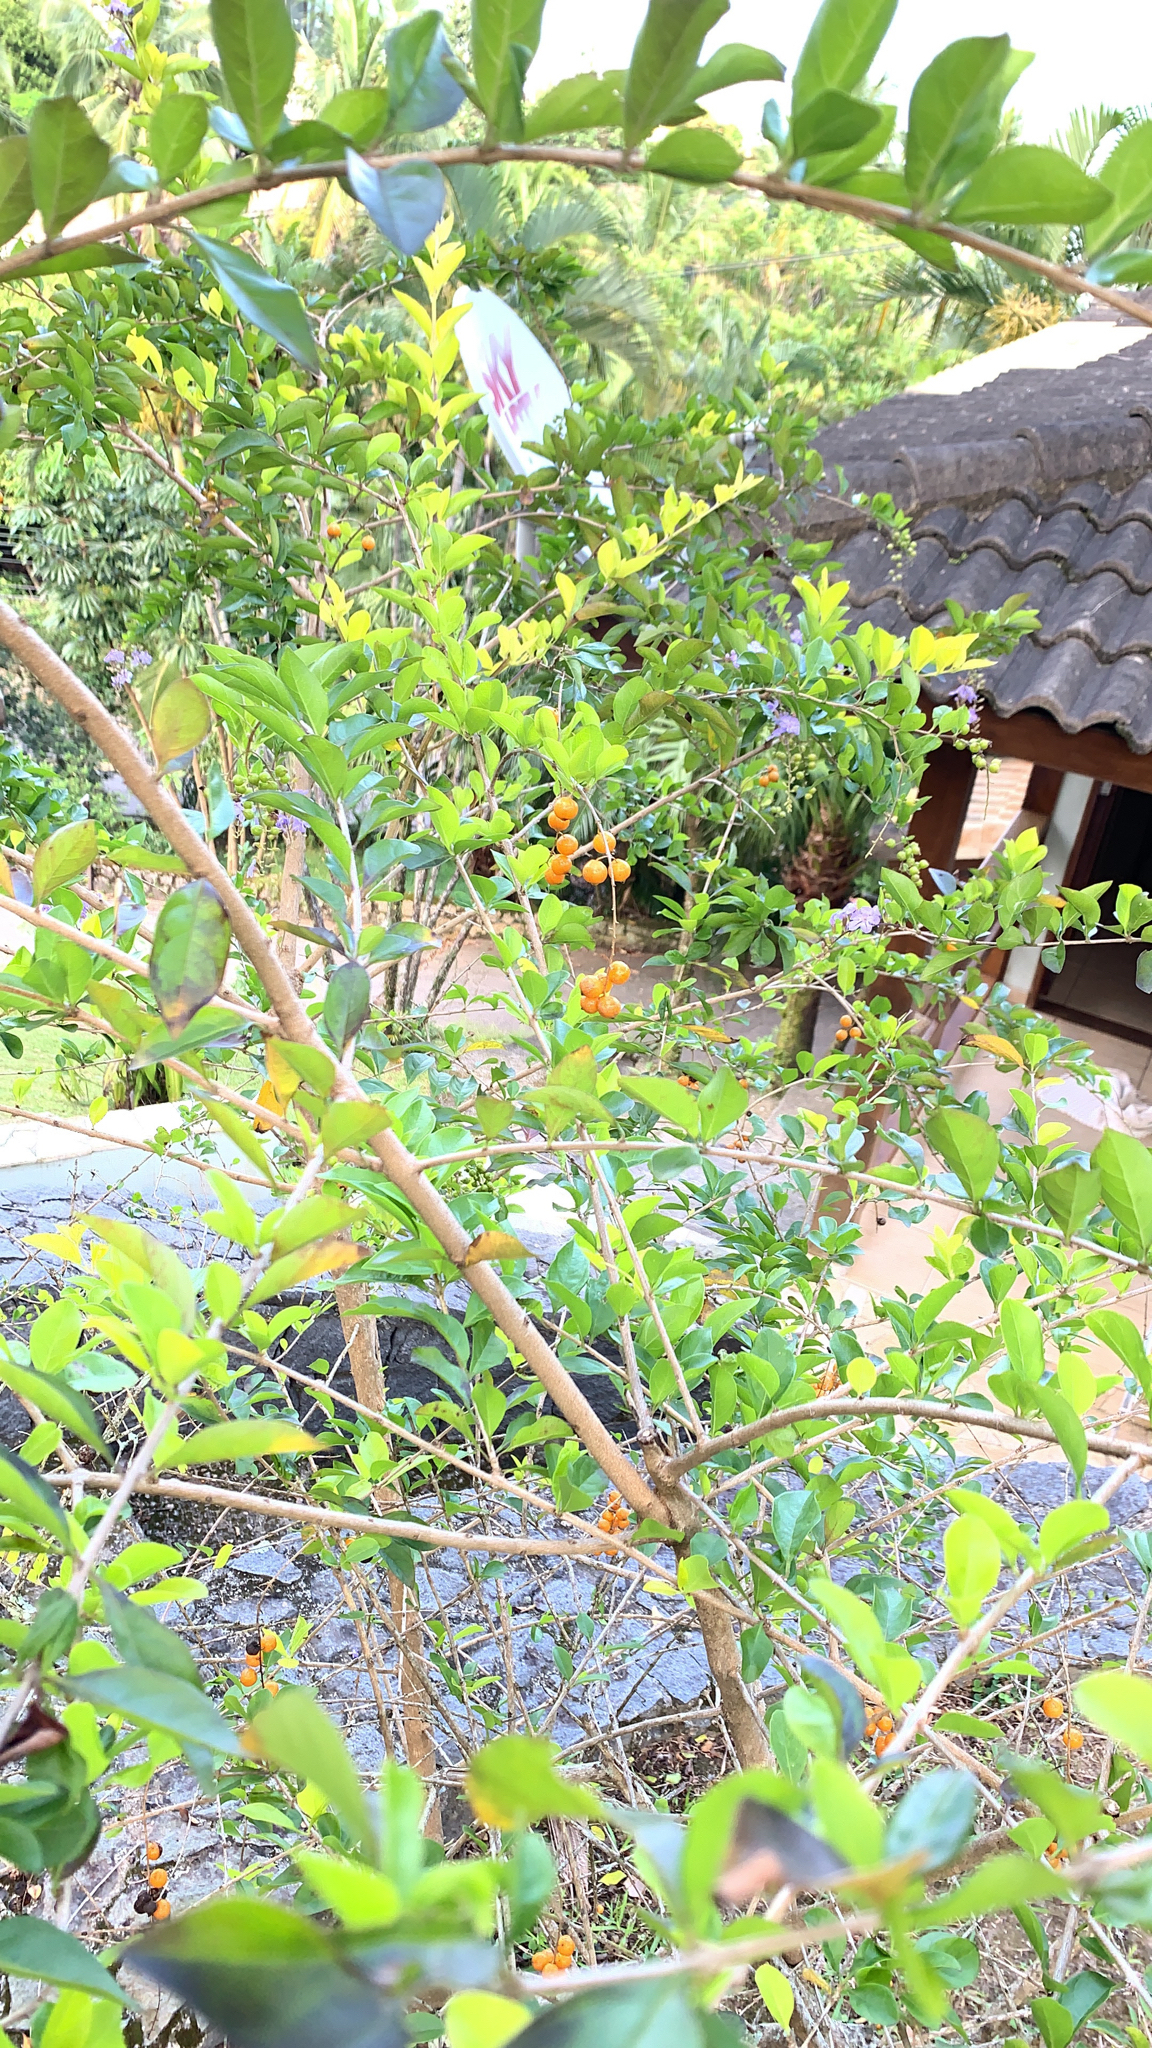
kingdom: Plantae
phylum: Tracheophyta
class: Magnoliopsida
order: Lamiales
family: Verbenaceae
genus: Duranta
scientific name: Duranta erecta
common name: Golden dewdrops
